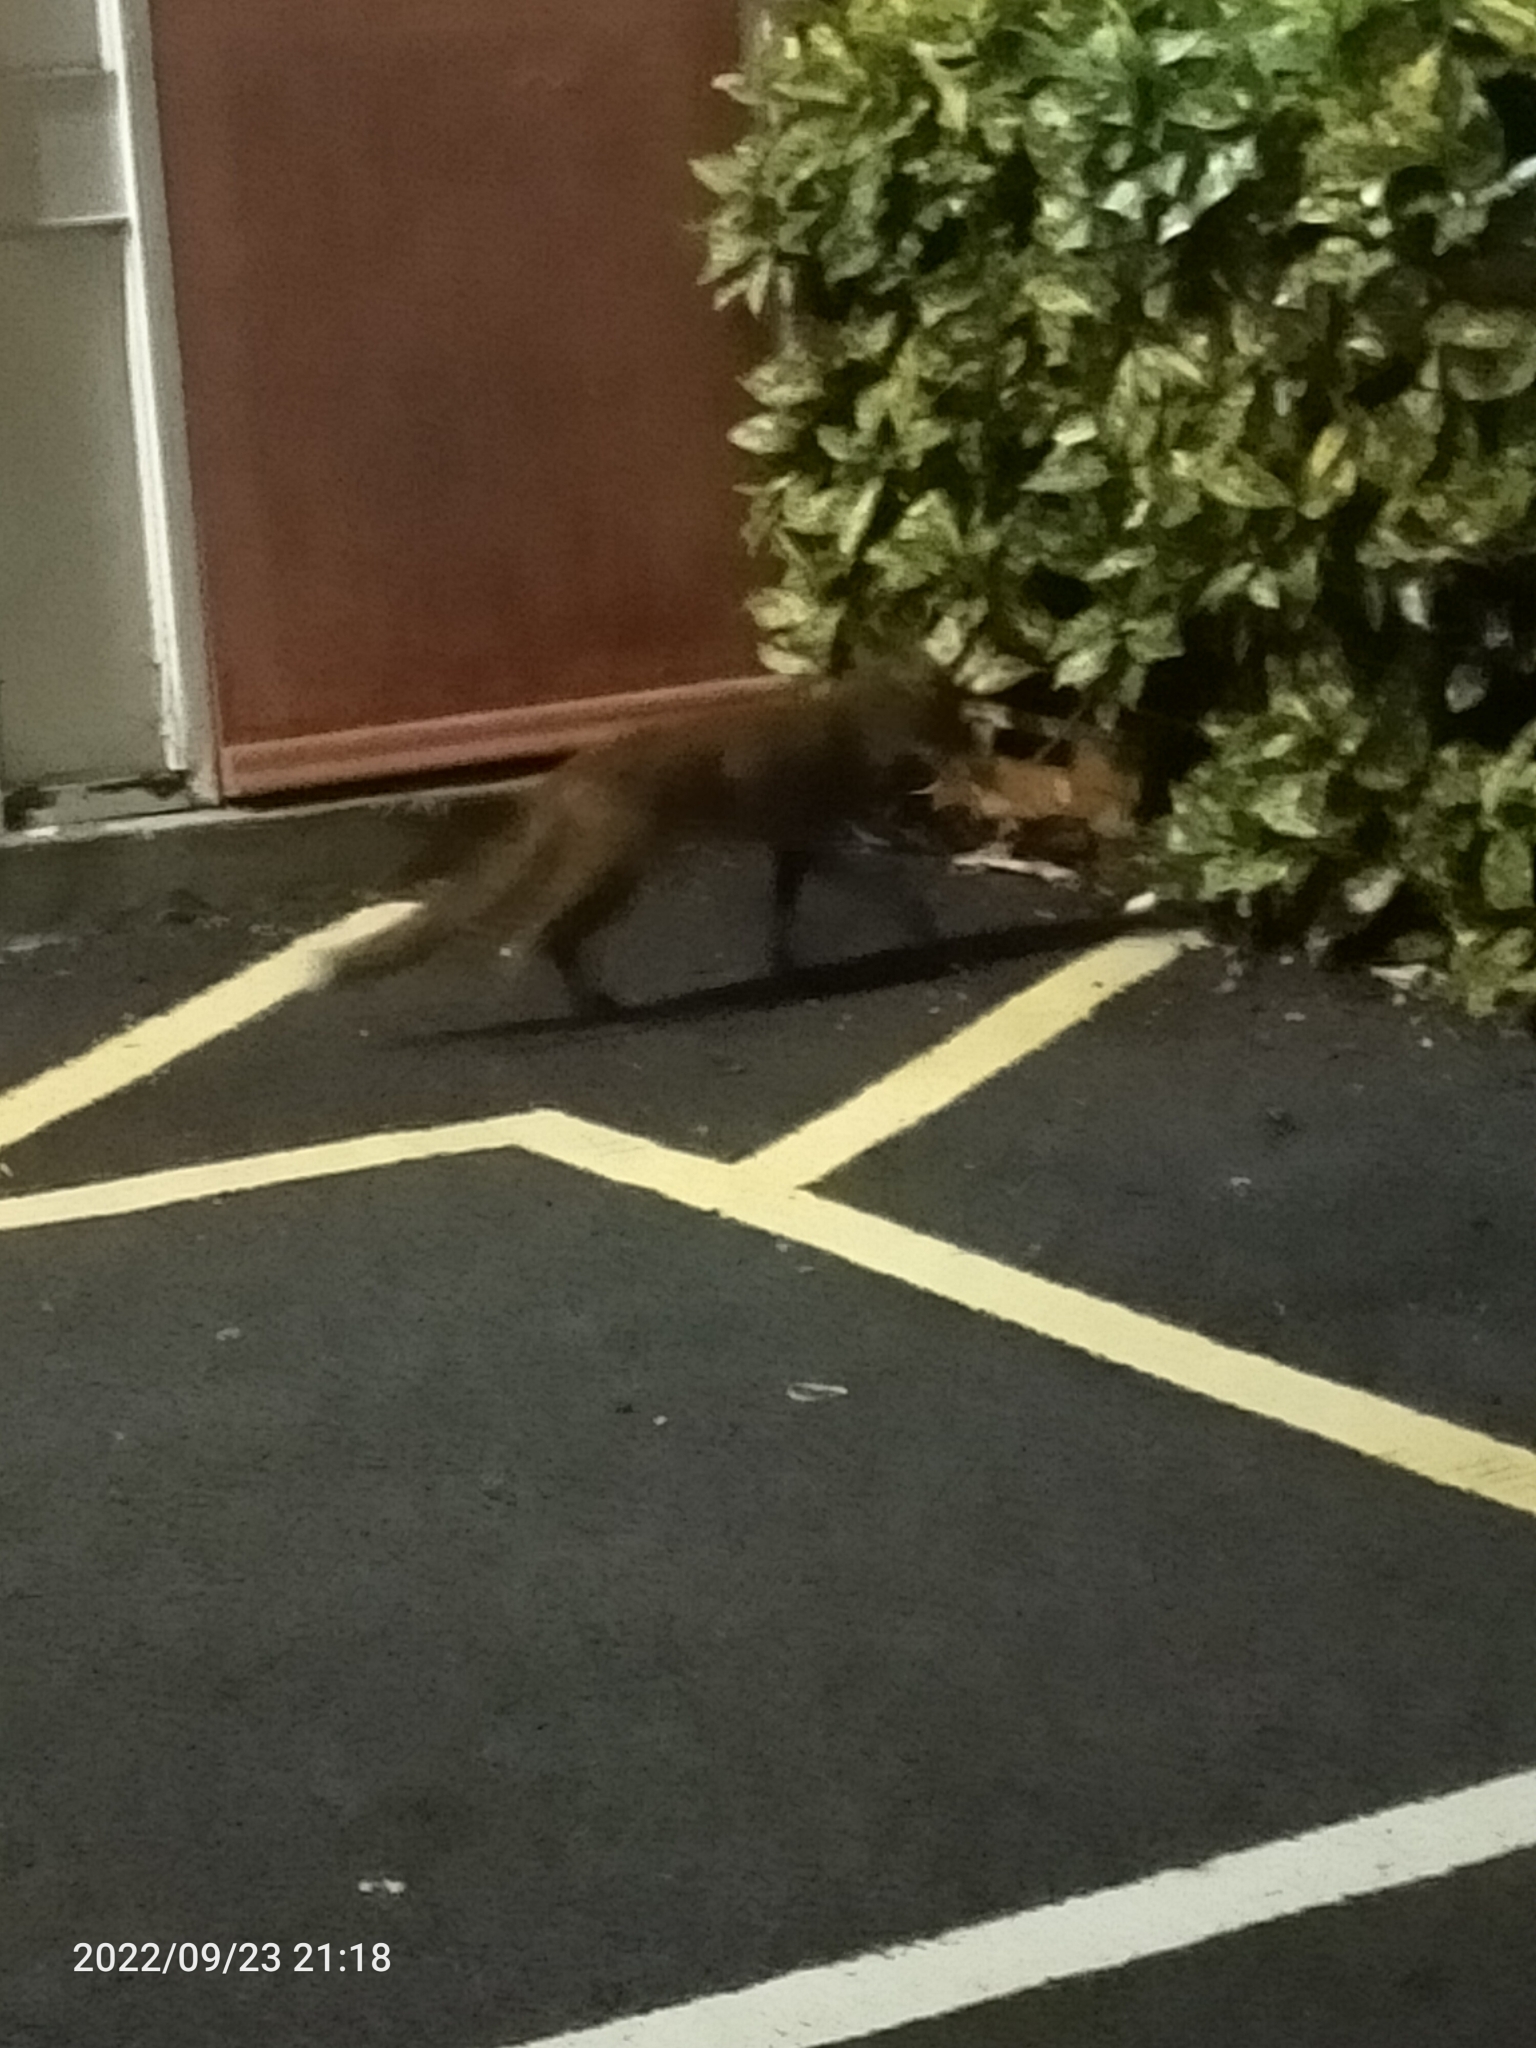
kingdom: Animalia
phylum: Chordata
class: Mammalia
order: Carnivora
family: Canidae
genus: Vulpes
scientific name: Vulpes vulpes
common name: Red fox
